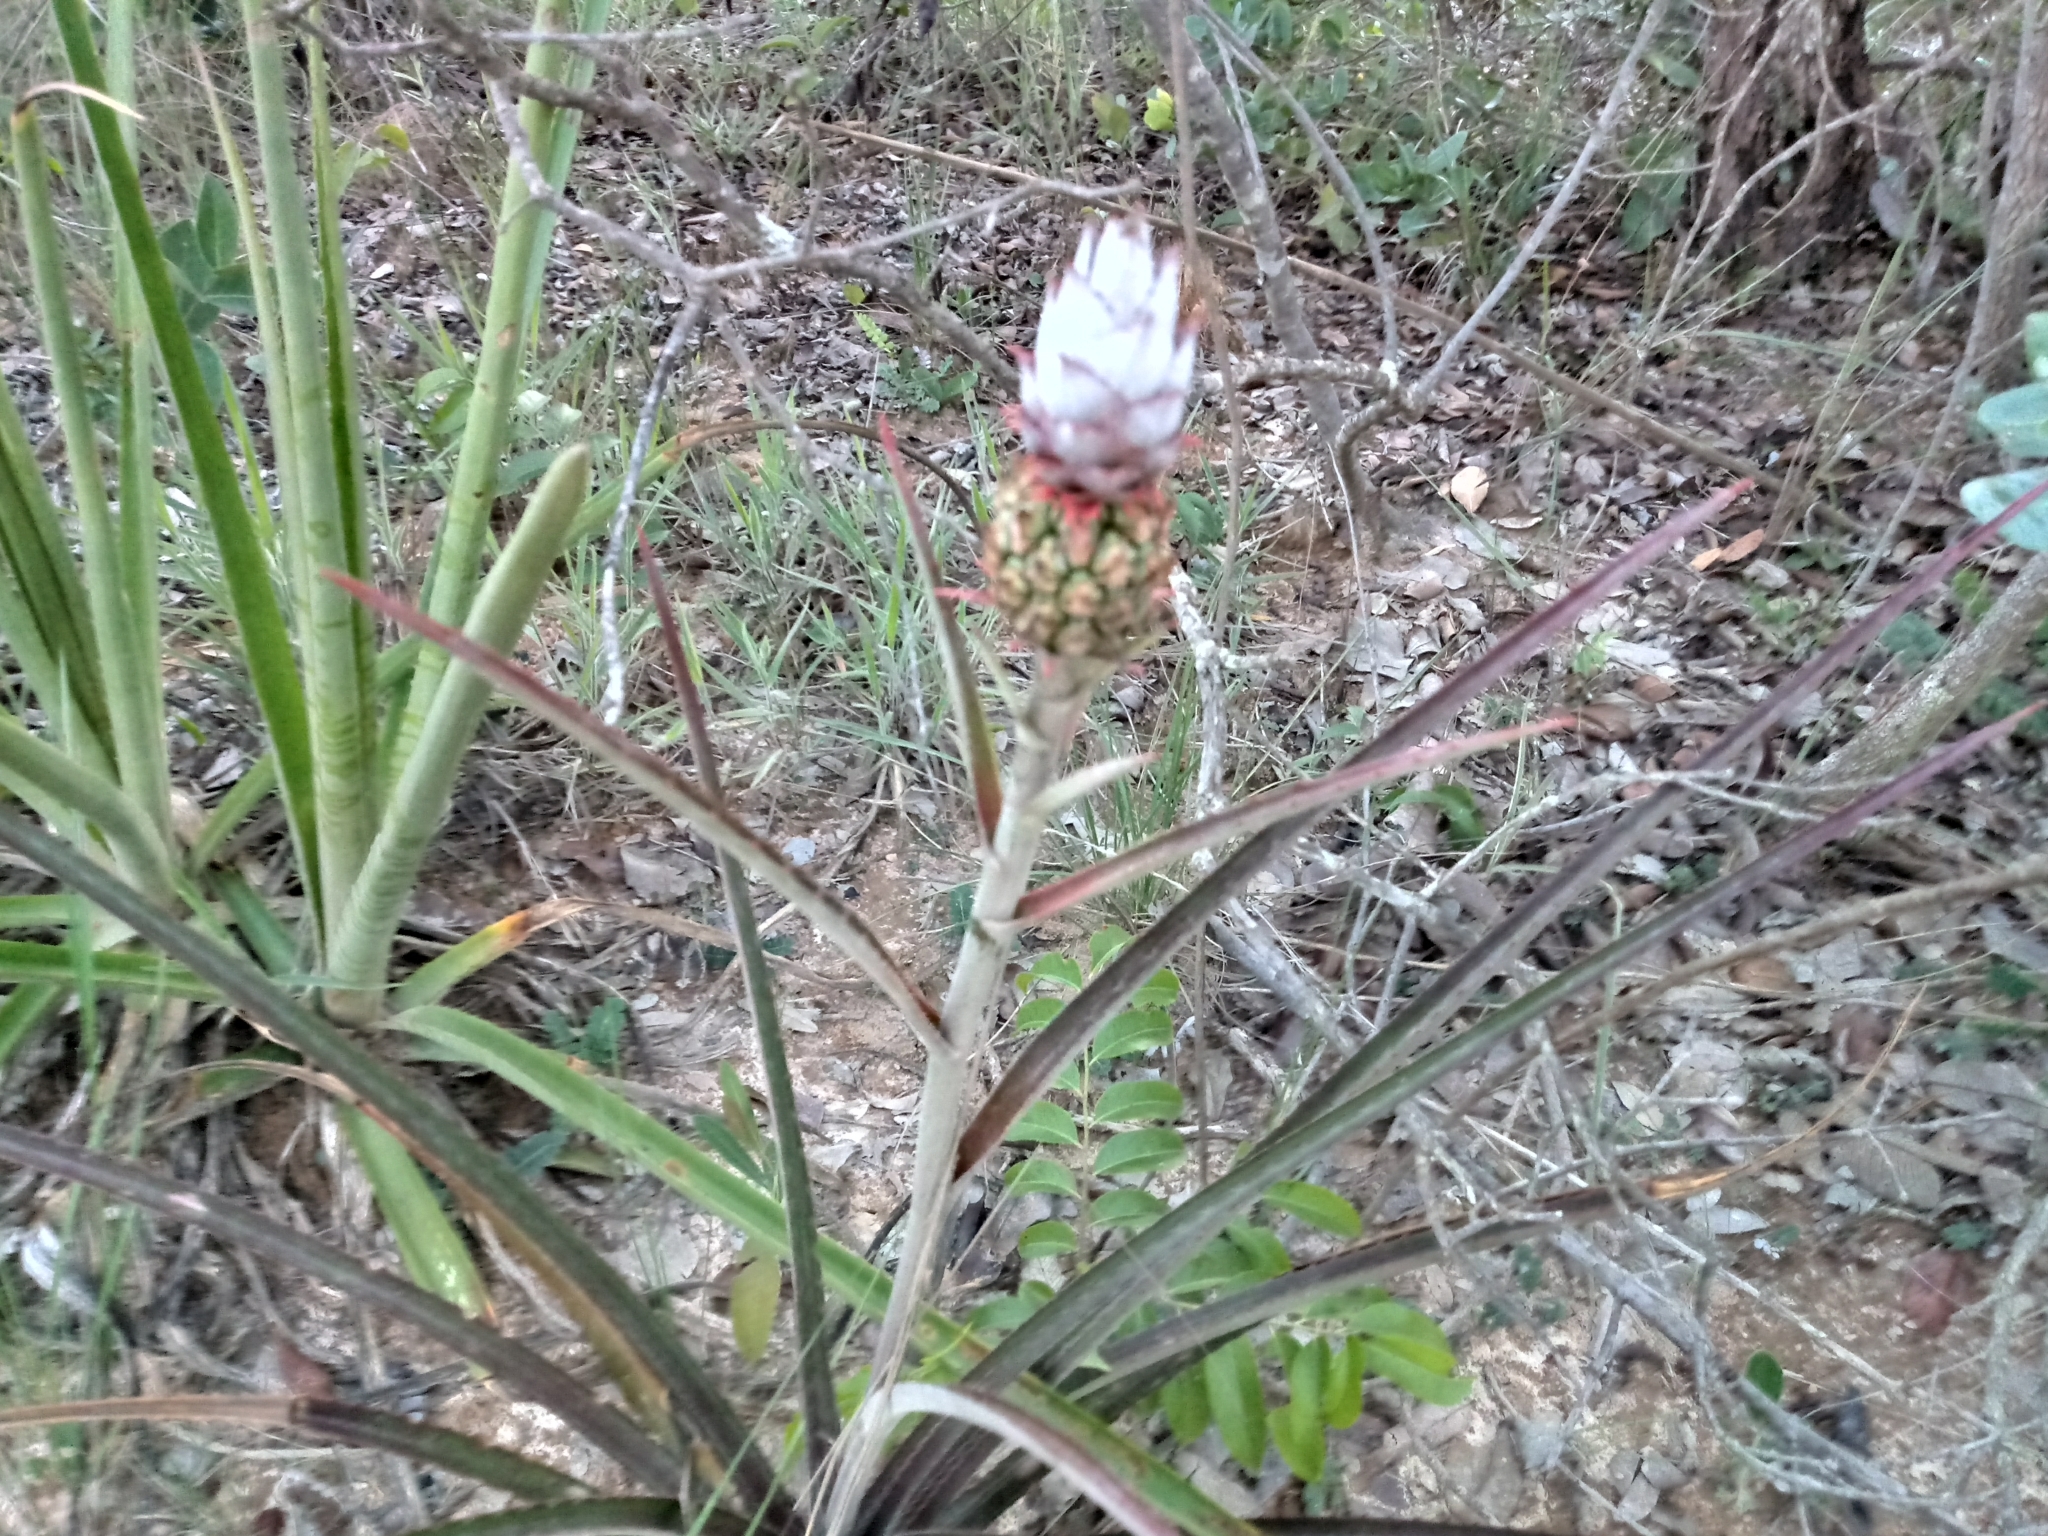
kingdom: Plantae
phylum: Tracheophyta
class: Liliopsida
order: Poales
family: Bromeliaceae
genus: Ananas
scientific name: Ananas comosus
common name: Pineapple
